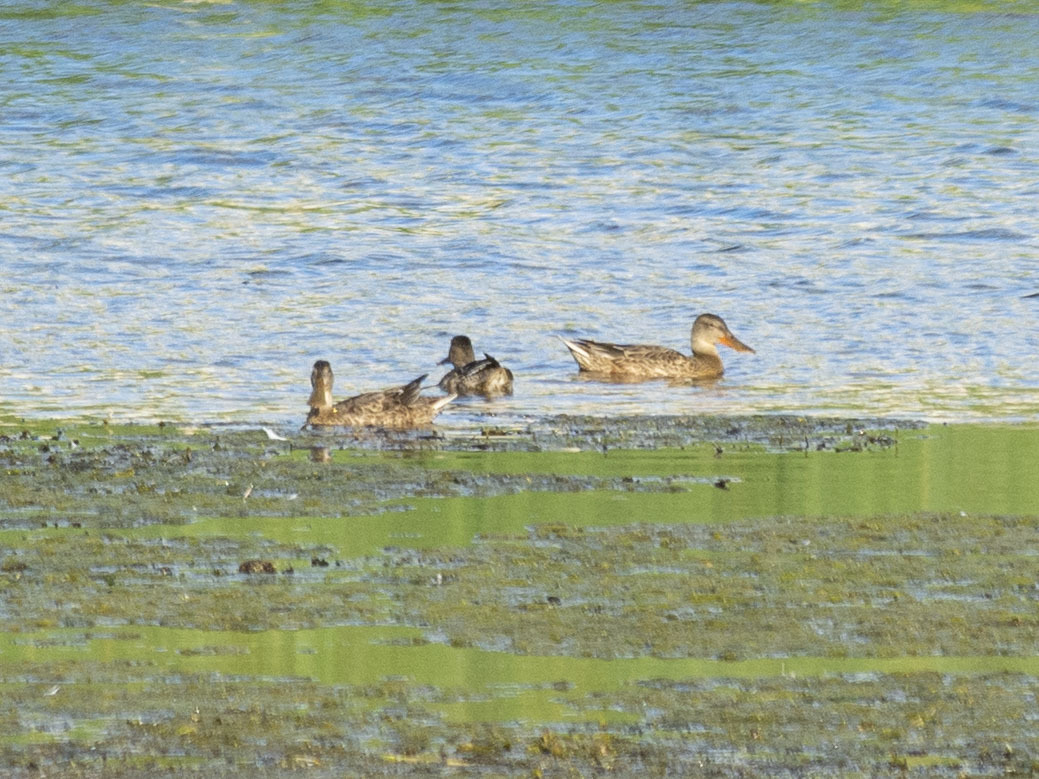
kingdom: Animalia
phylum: Chordata
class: Aves
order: Anseriformes
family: Anatidae
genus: Spatula
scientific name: Spatula clypeata
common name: Northern shoveler
